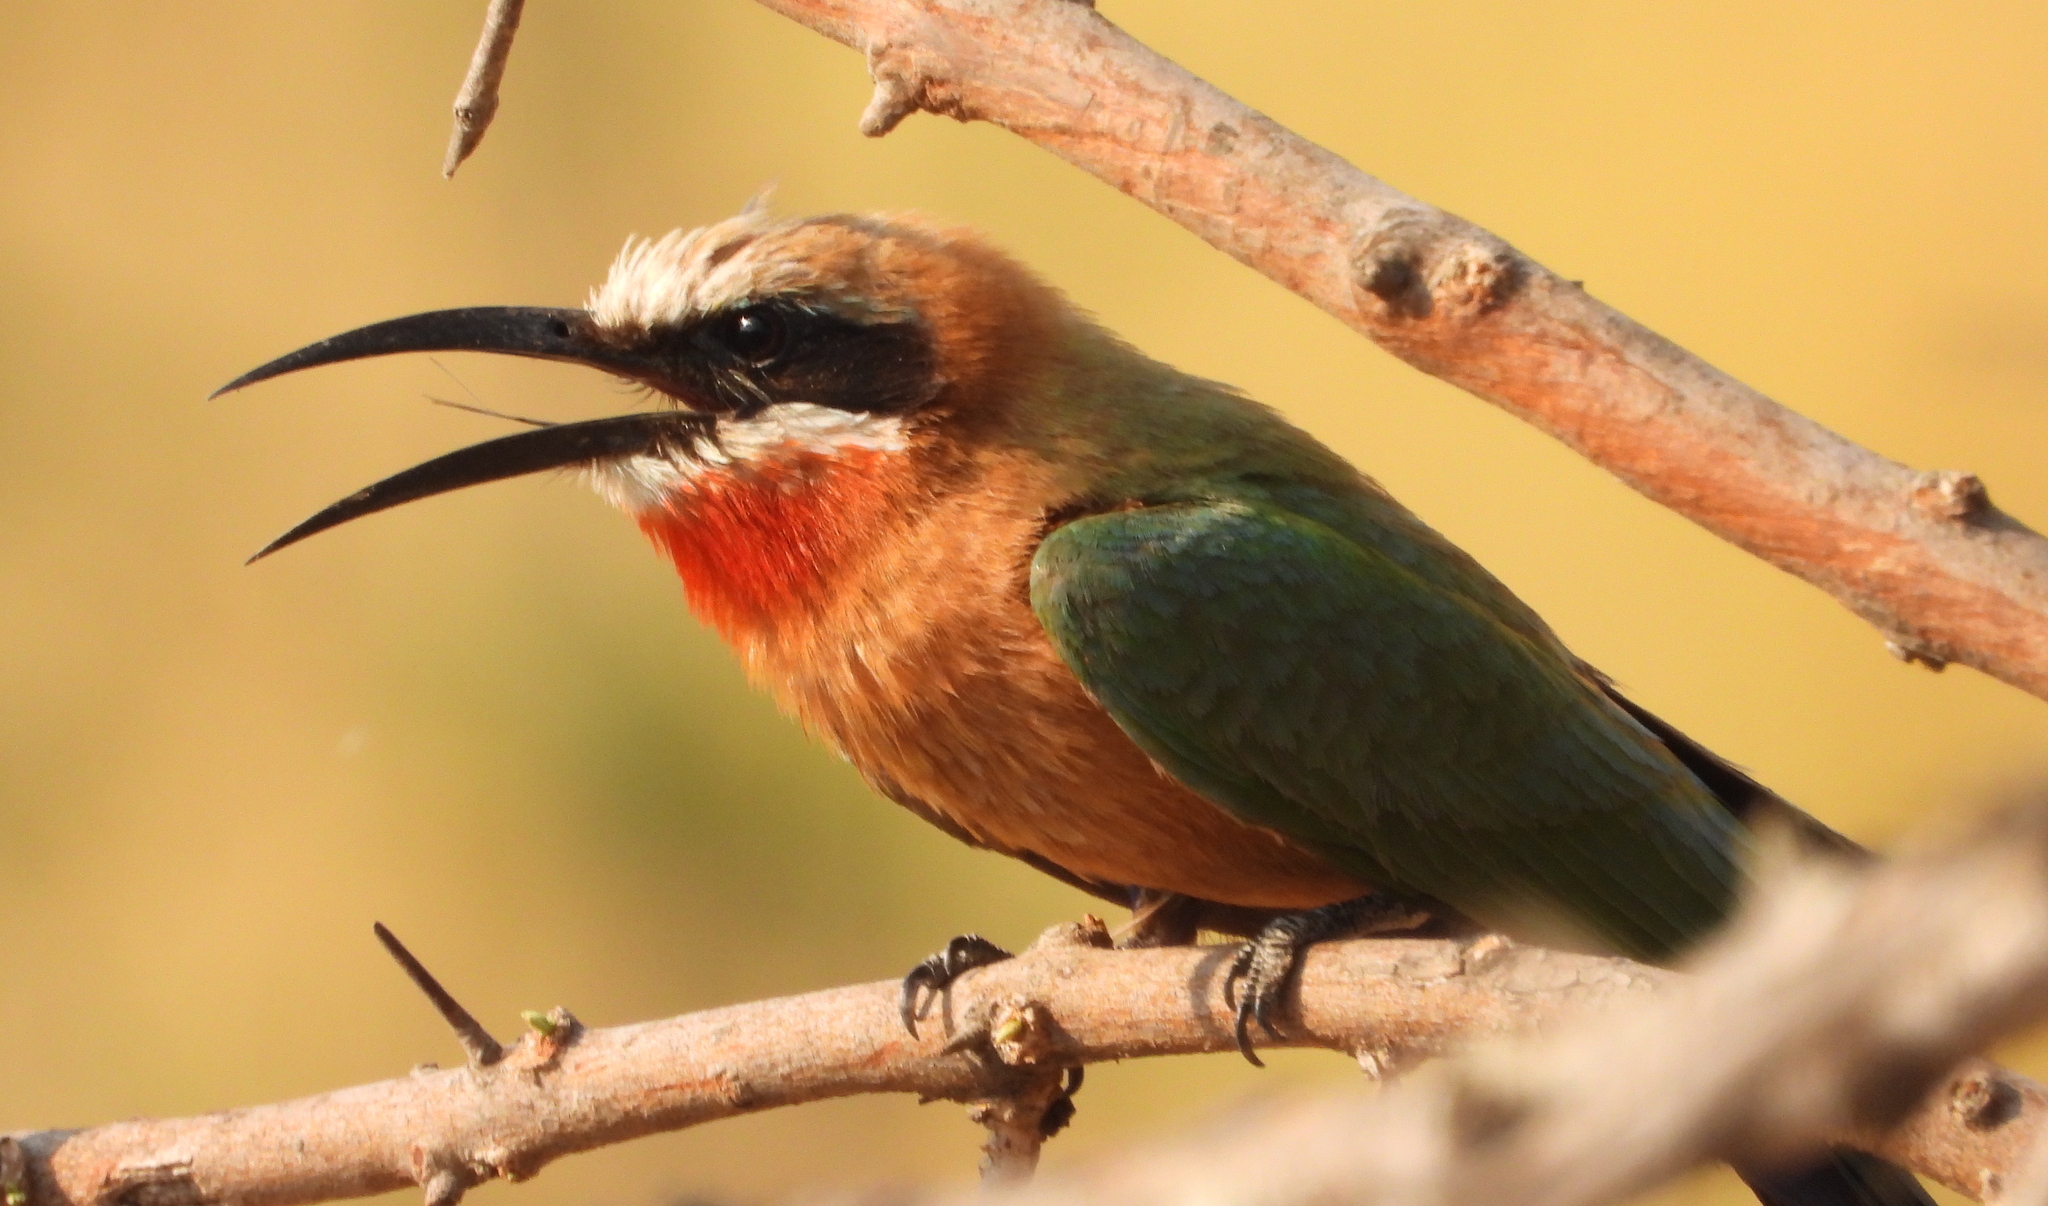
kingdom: Animalia
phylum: Chordata
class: Aves
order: Coraciiformes
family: Meropidae
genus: Merops
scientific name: Merops bullockoides
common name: White-fronted bee-eater
